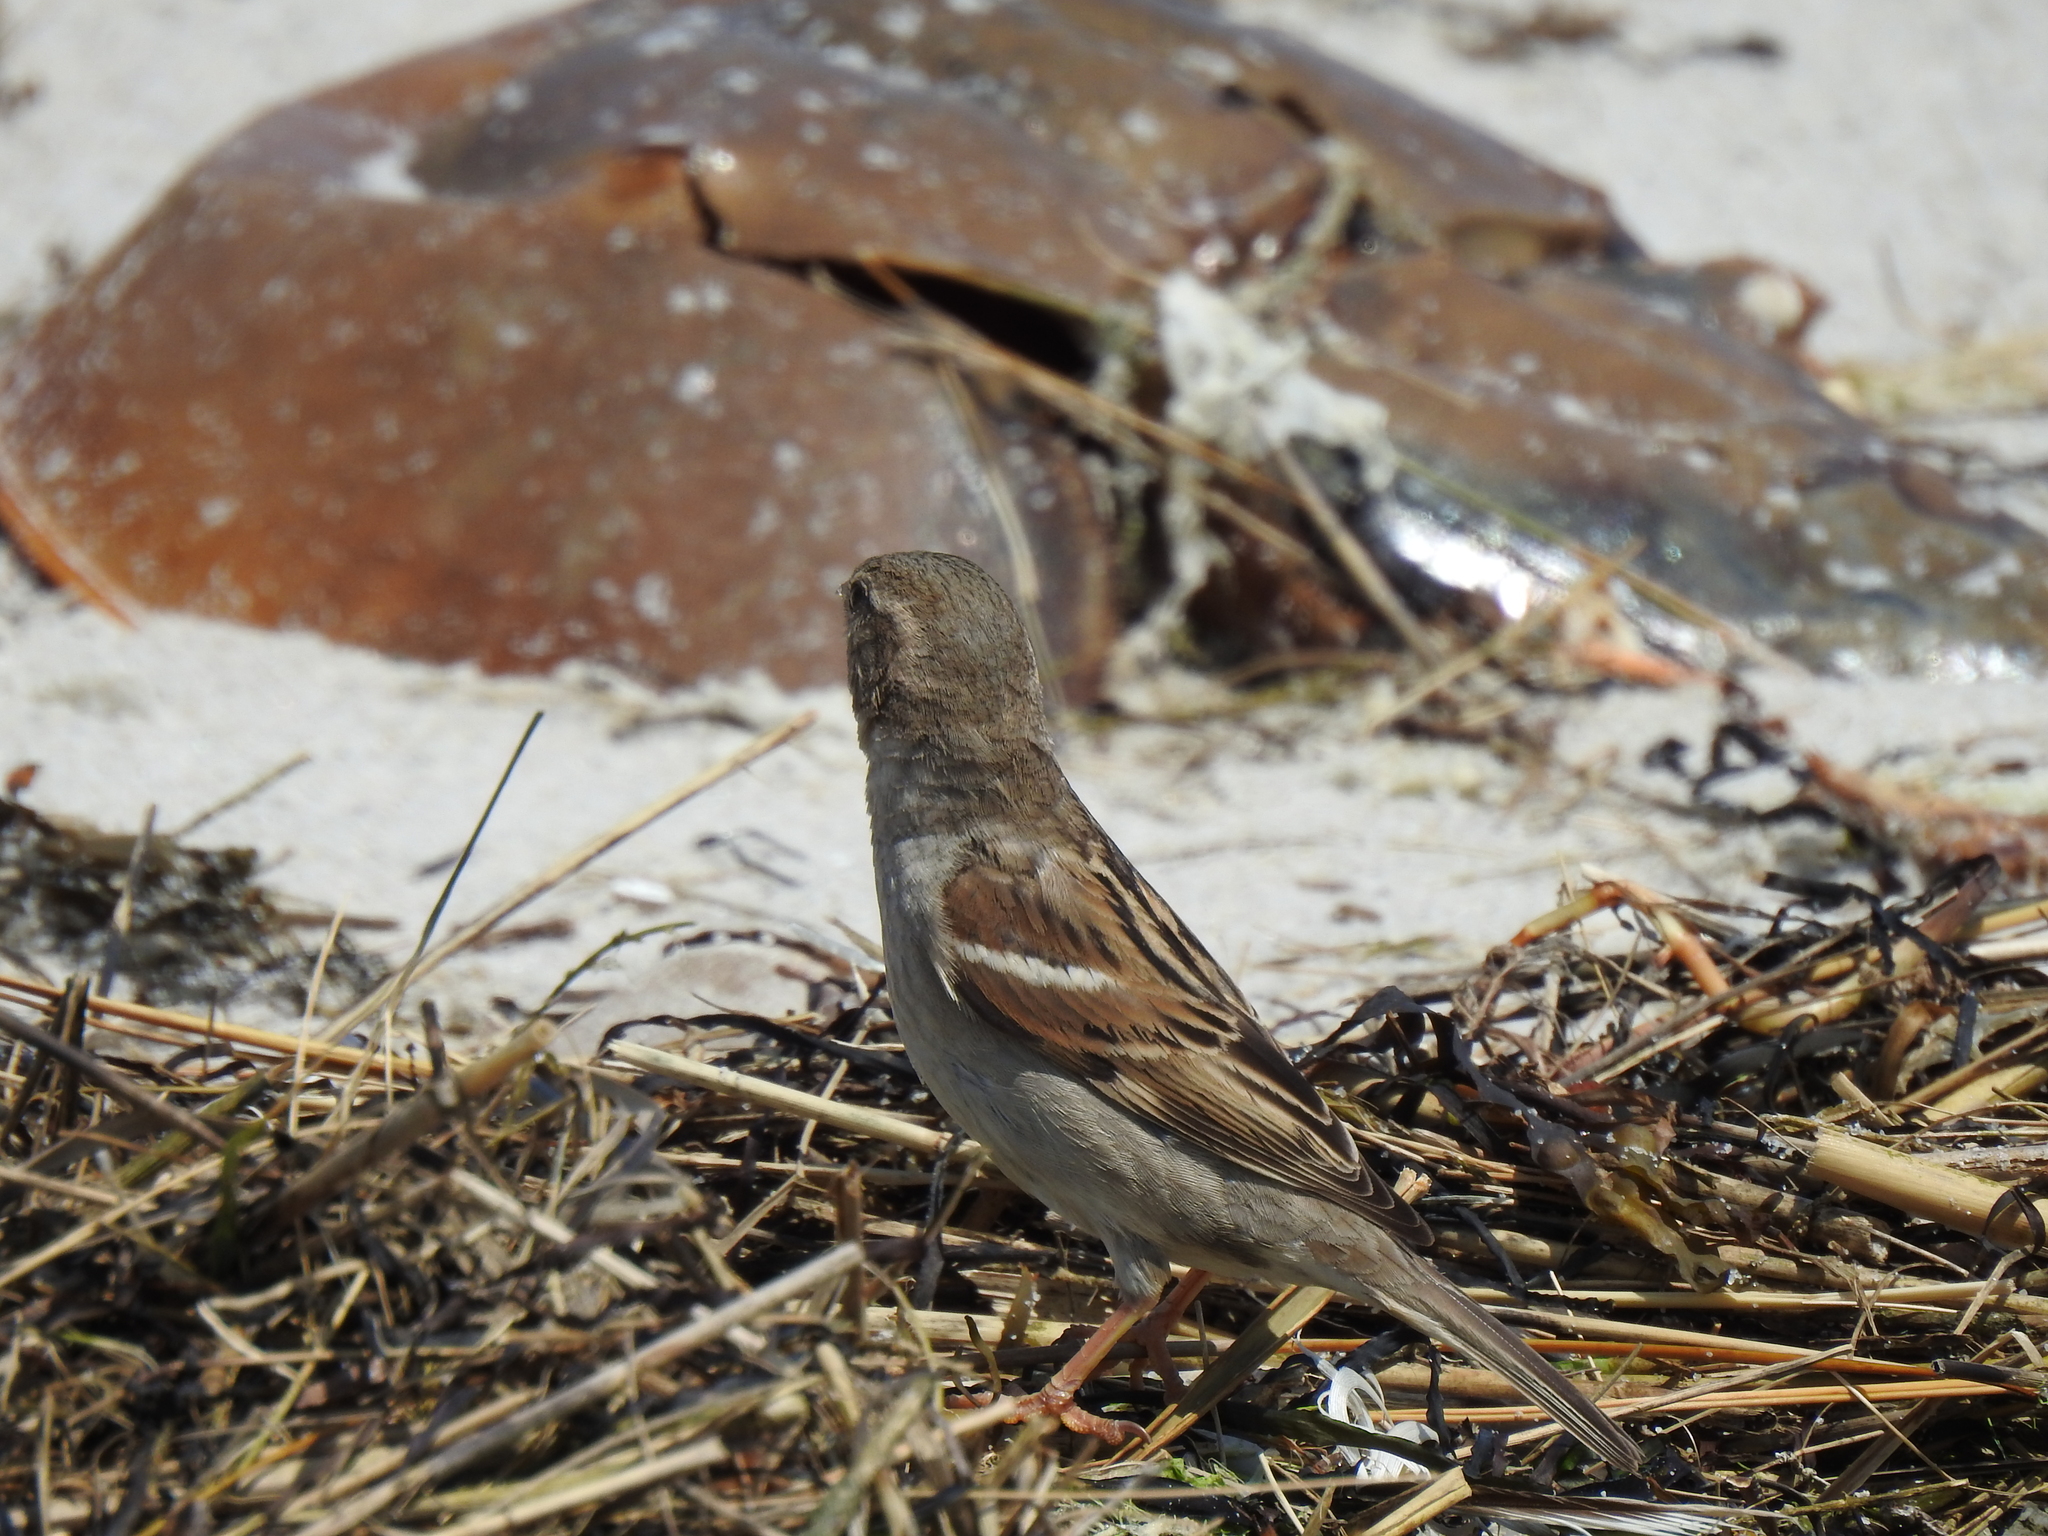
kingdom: Animalia
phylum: Chordata
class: Aves
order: Passeriformes
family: Passeridae
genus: Passer
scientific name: Passer domesticus
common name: House sparrow
